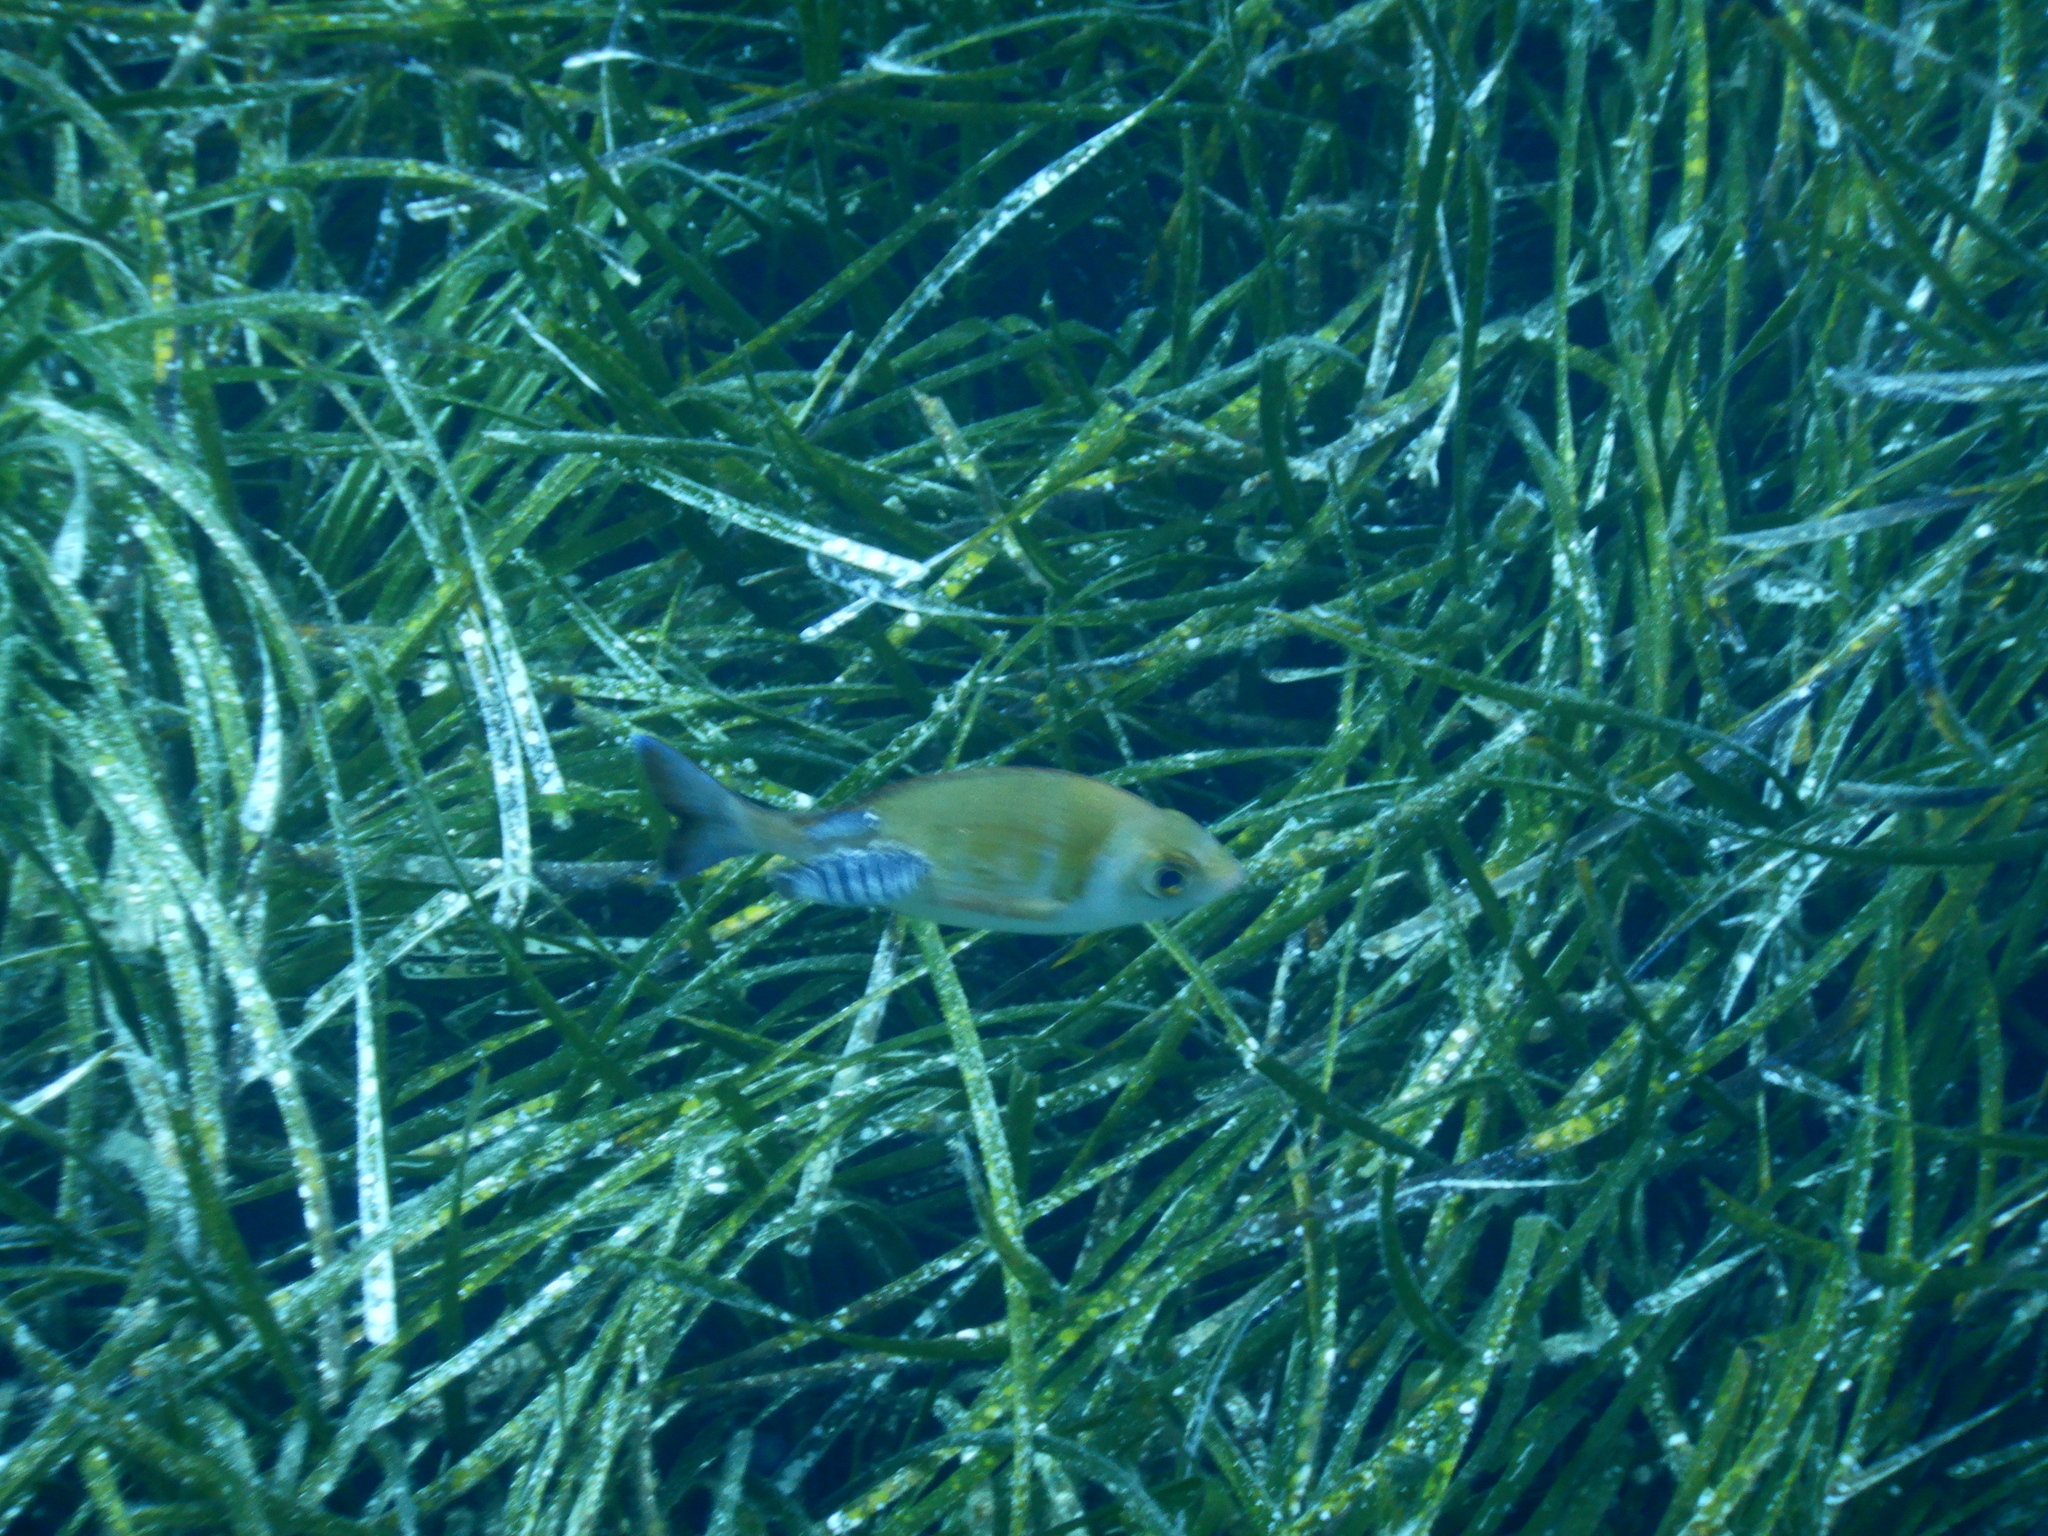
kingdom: Animalia
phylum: Chordata
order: Perciformes
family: Sparidae
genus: Spondyliosoma
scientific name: Spondyliosoma cantharus
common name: Black seabream
